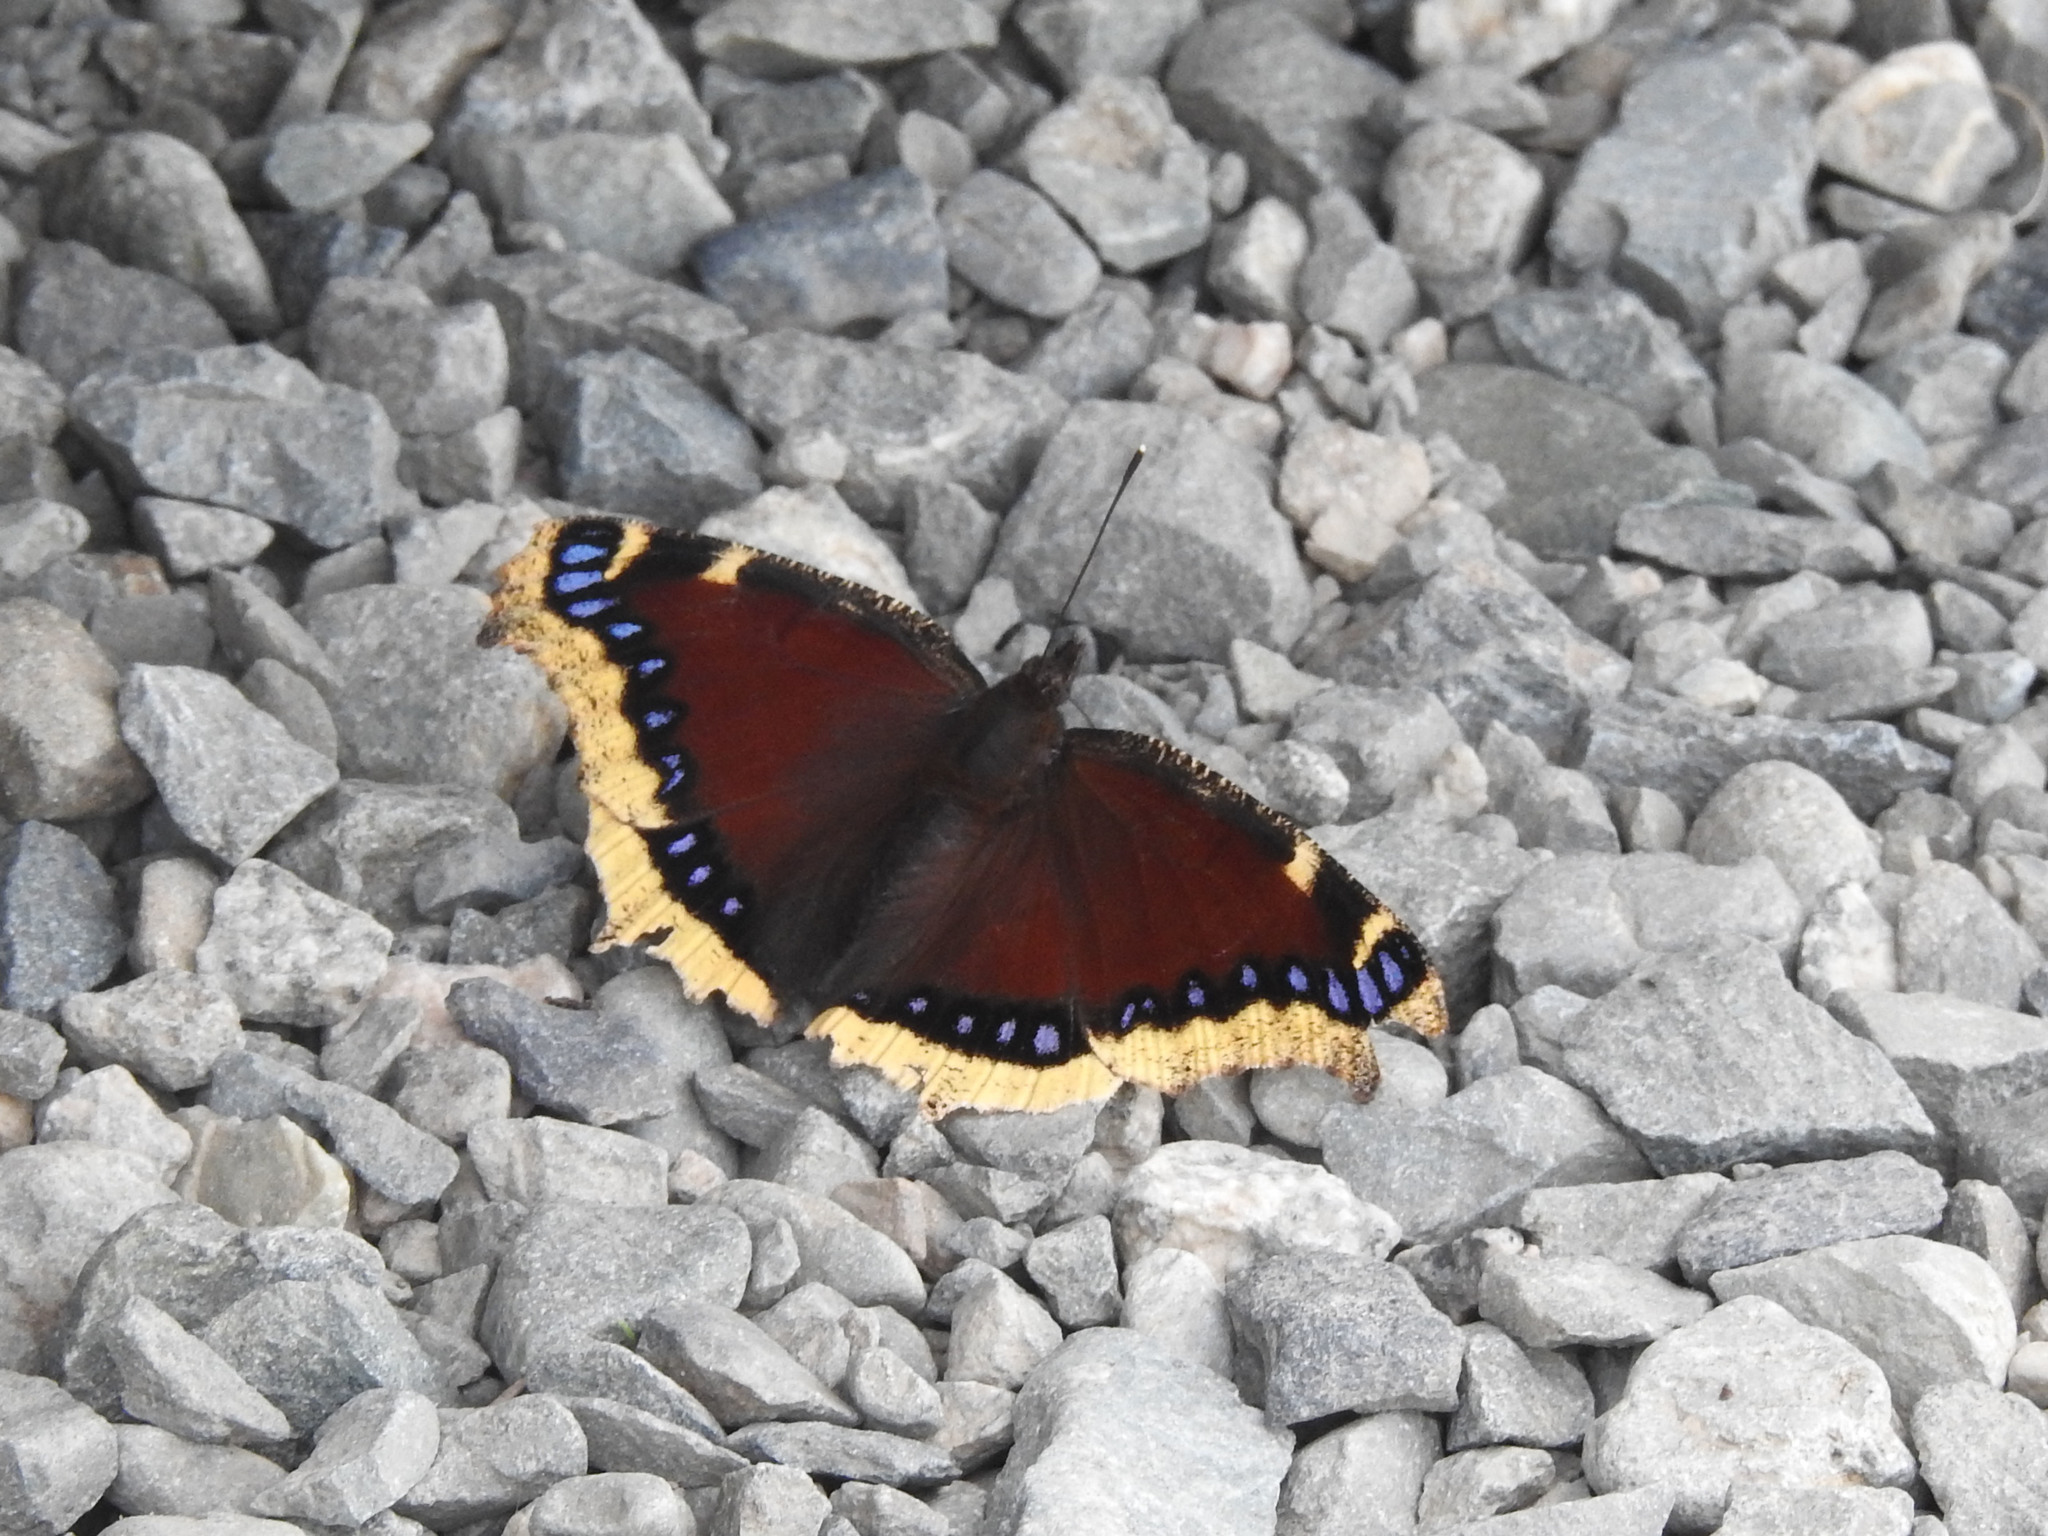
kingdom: Animalia
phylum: Arthropoda
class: Insecta
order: Lepidoptera
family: Nymphalidae
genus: Nymphalis
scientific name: Nymphalis antiopa
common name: Camberwell beauty
